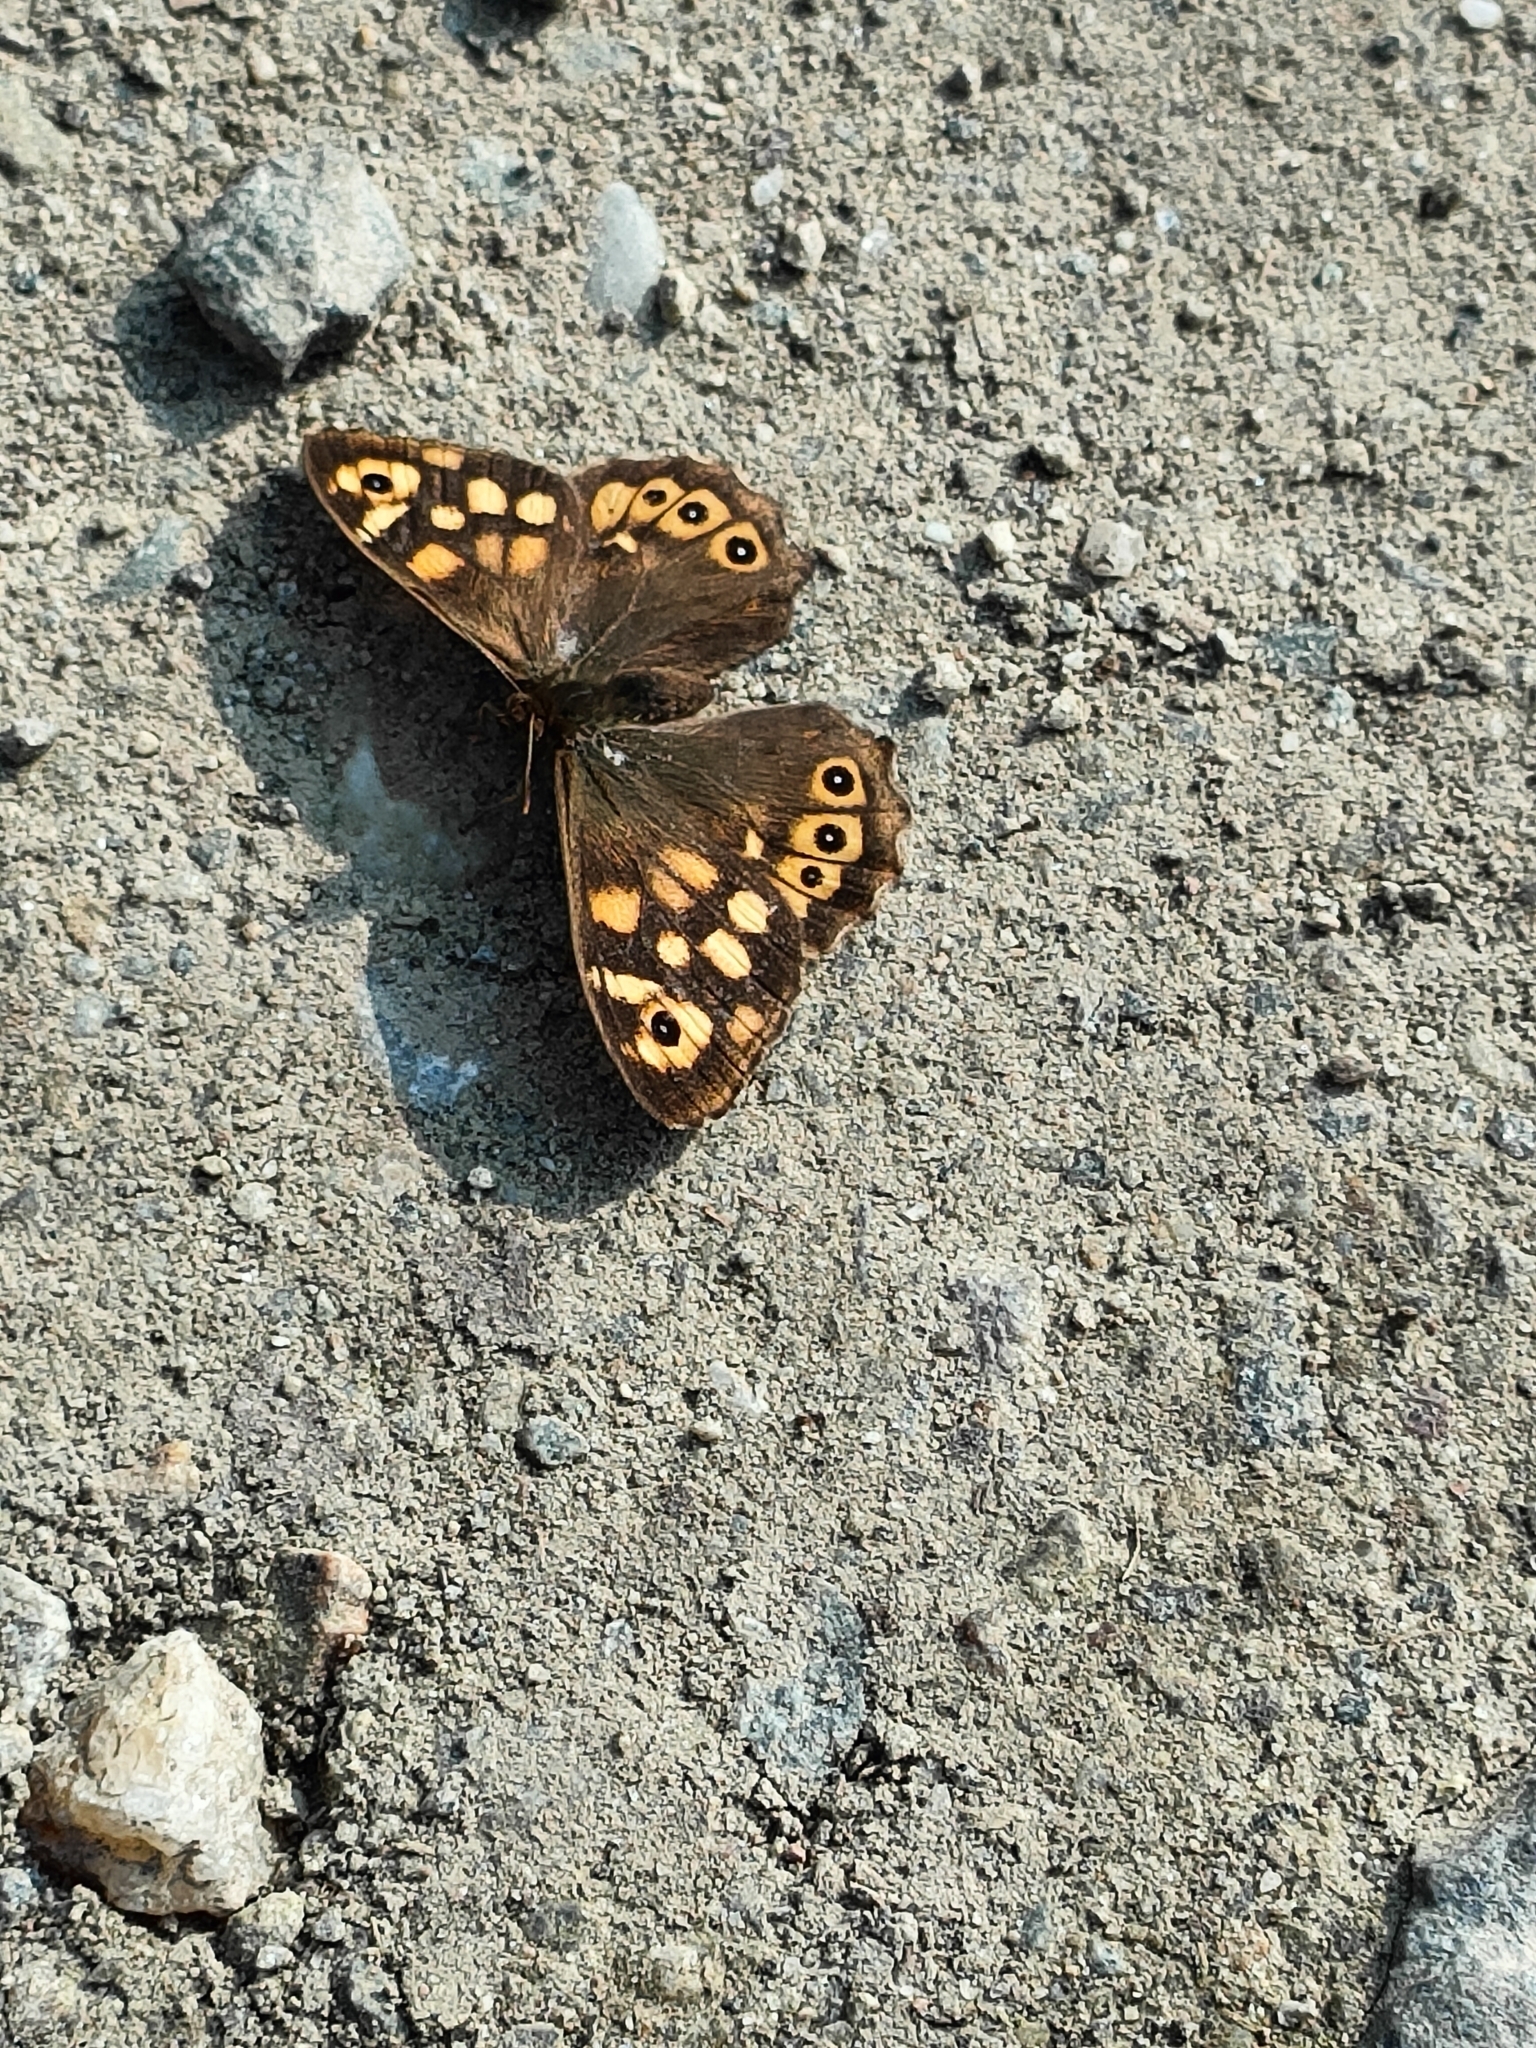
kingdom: Animalia
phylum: Arthropoda
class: Insecta
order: Lepidoptera
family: Nymphalidae
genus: Pararge
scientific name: Pararge aegeria
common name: Speckled wood
